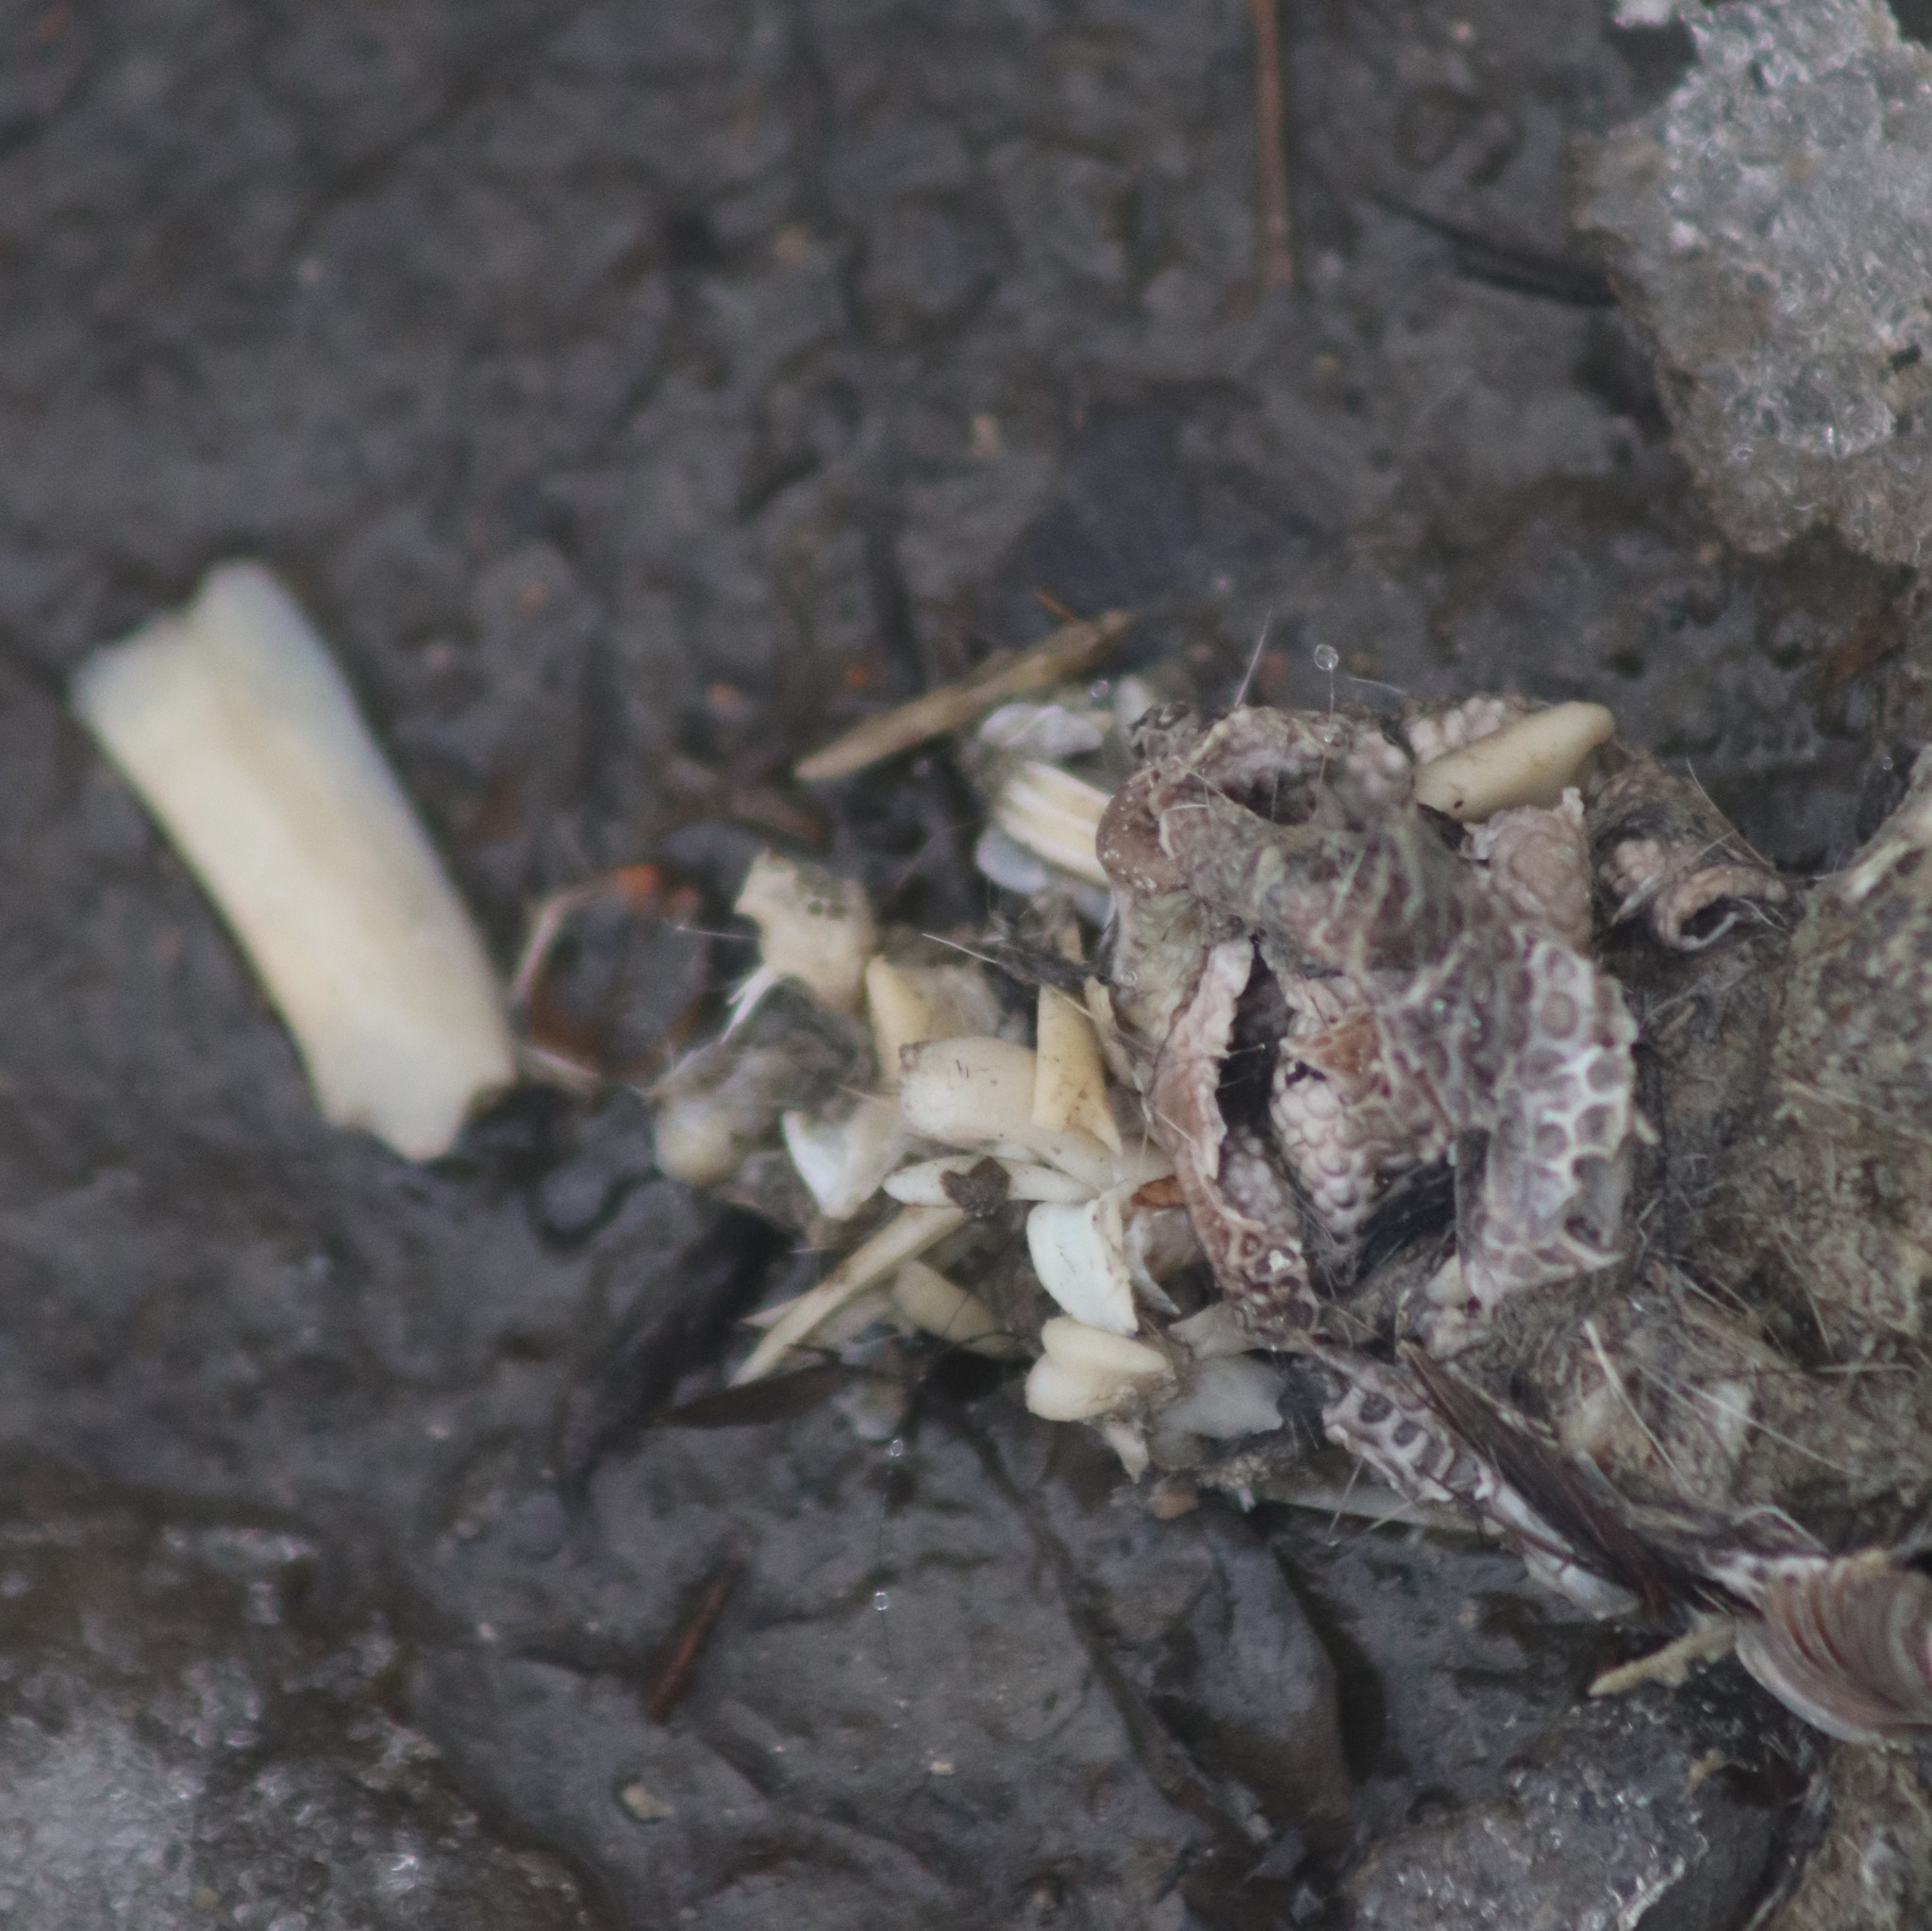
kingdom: Animalia
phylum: Chordata
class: Mammalia
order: Carnivora
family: Canidae
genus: Canis
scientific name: Canis latrans
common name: Coyote
